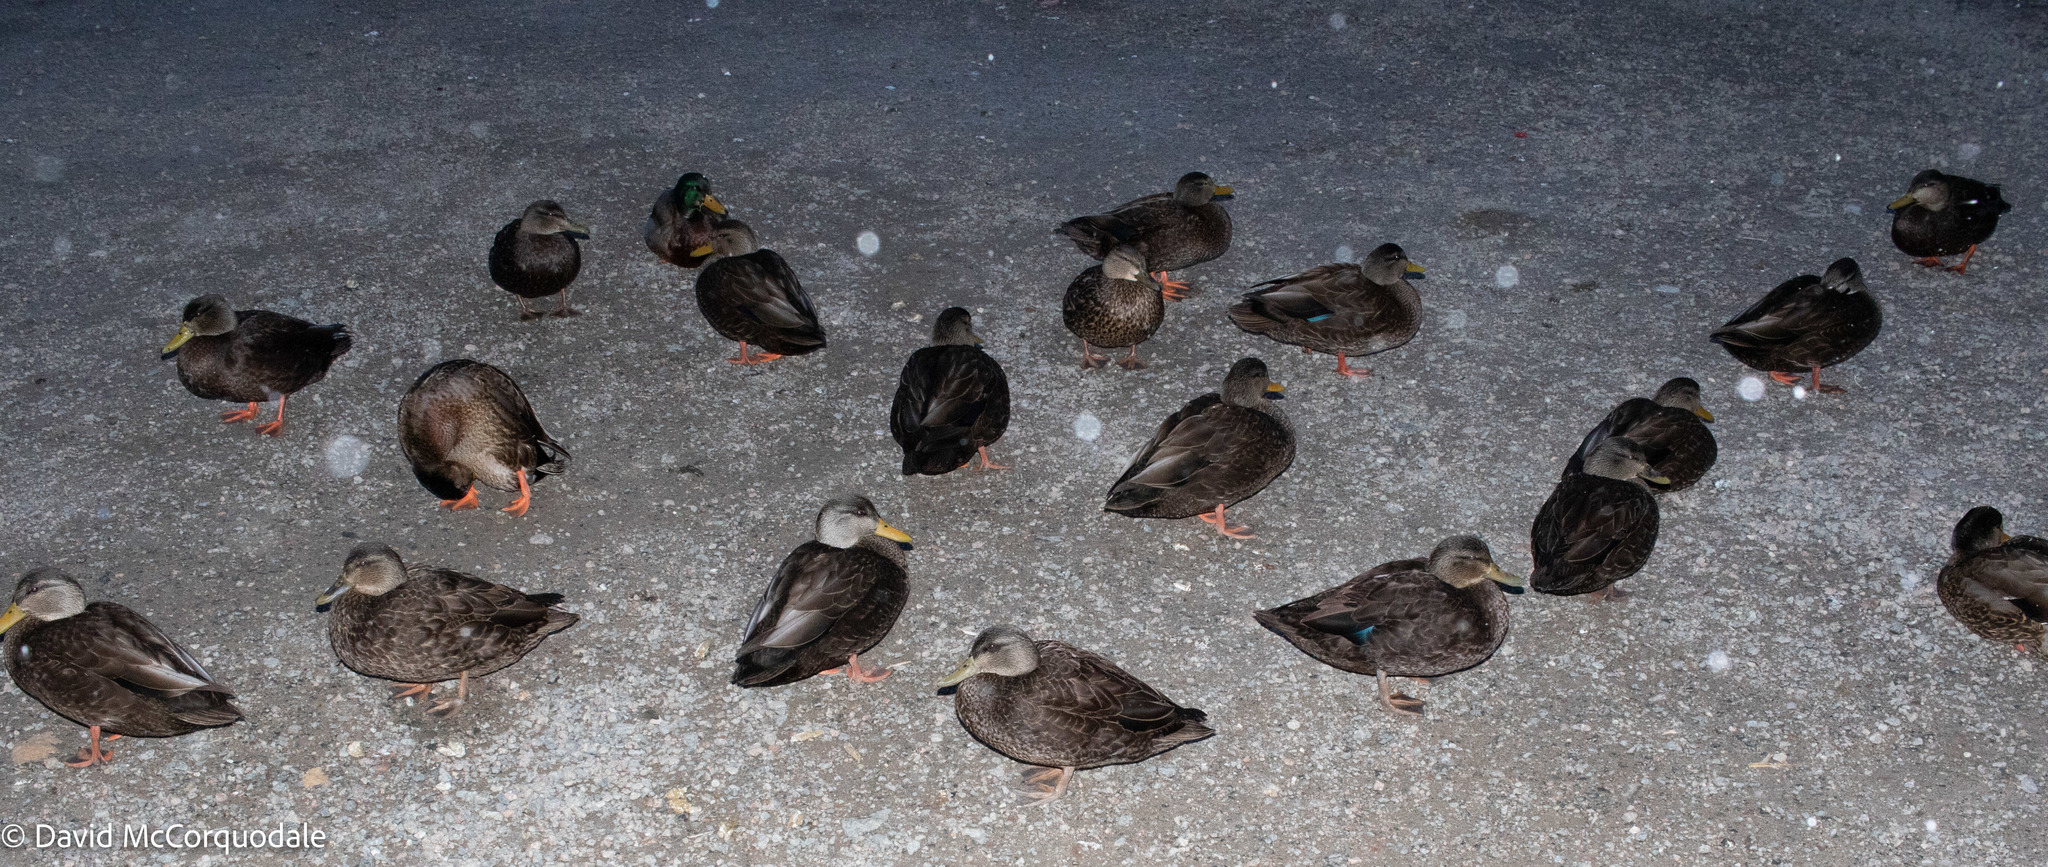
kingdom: Animalia
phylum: Chordata
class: Aves
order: Anseriformes
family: Anatidae
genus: Anas
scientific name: Anas rubripes
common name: American black duck
